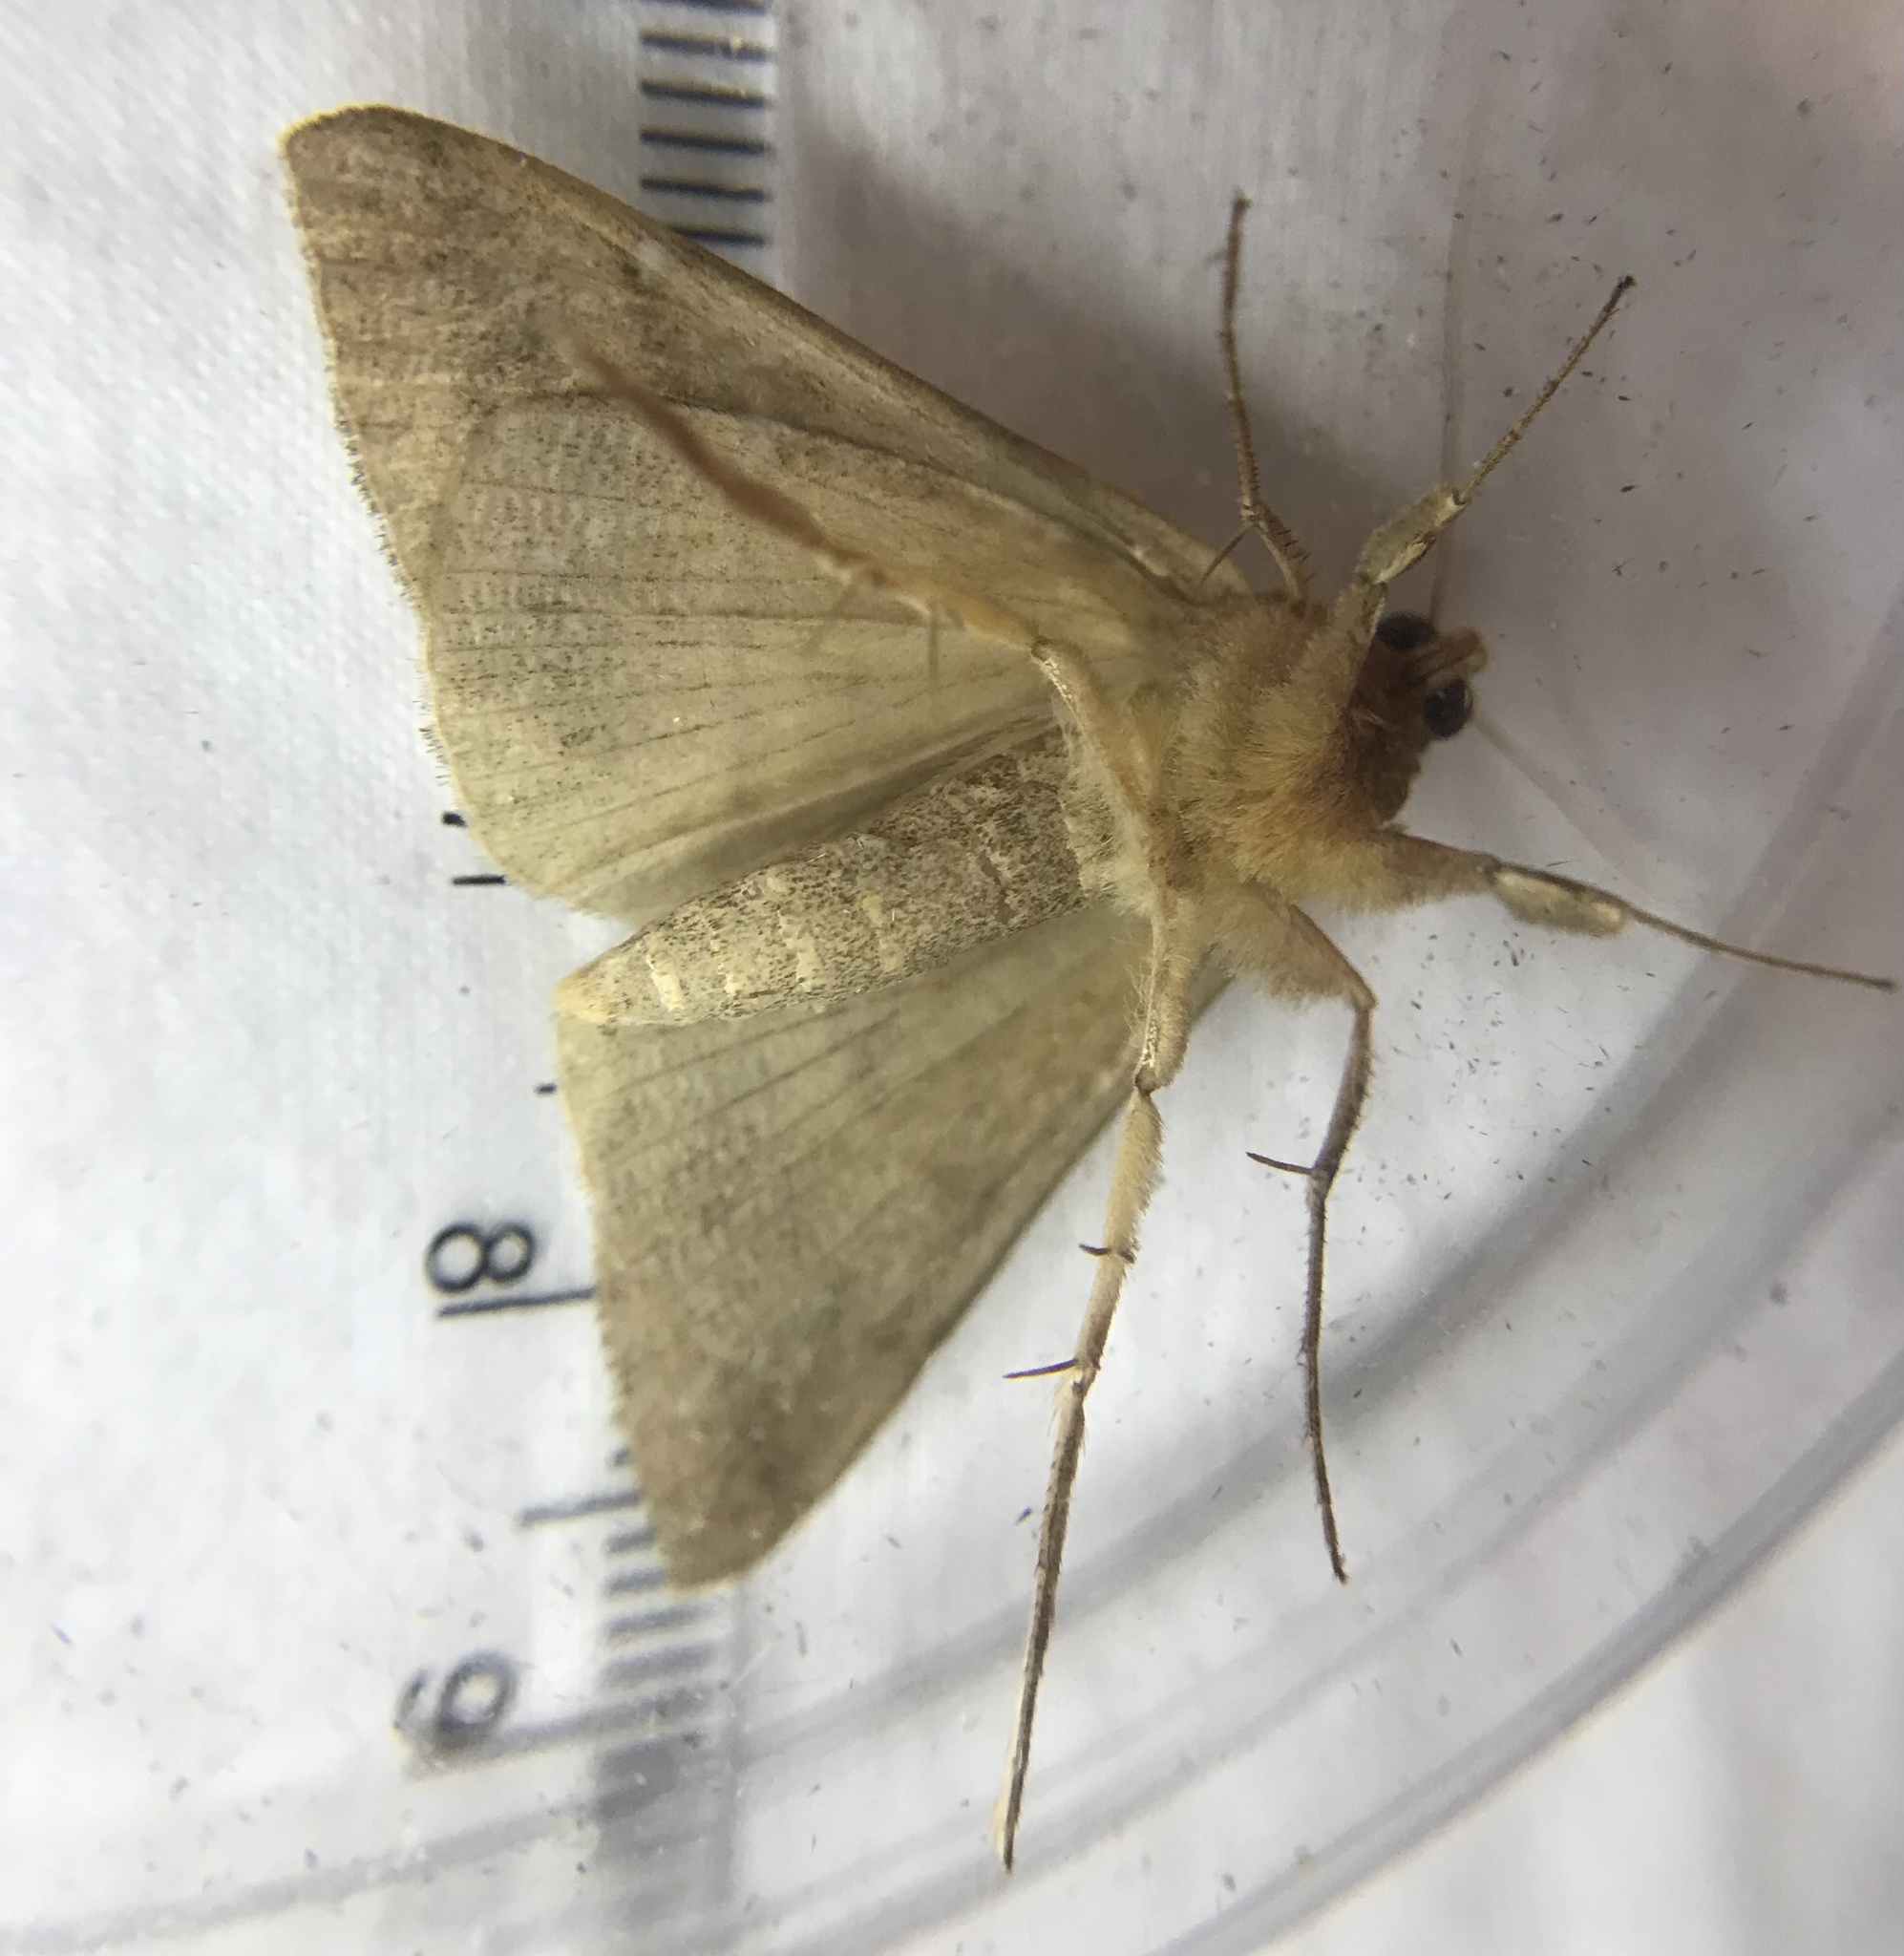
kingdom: Animalia
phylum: Arthropoda
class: Insecta
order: Lepidoptera
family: Erebidae
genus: Mocis
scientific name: Mocis texana
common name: Texas mocis moth
